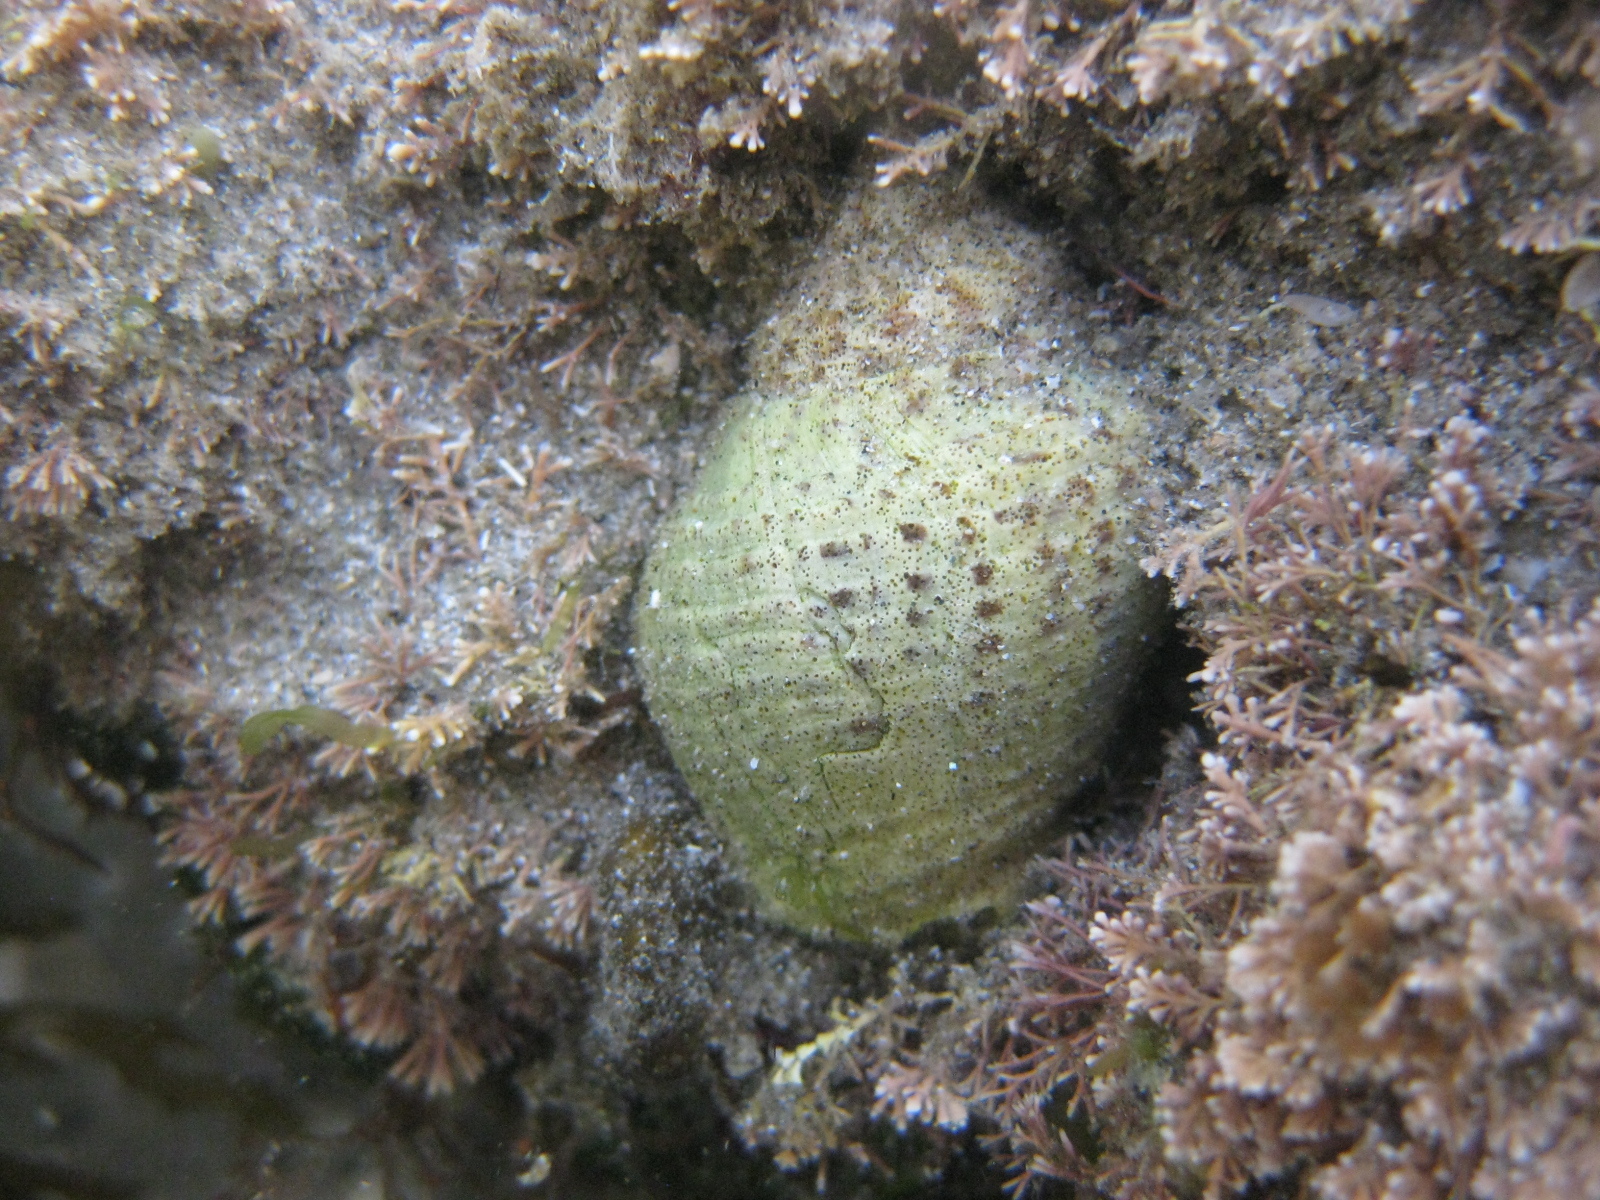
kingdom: Animalia
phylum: Mollusca
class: Gastropoda
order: Neogastropoda
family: Cominellidae
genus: Cominella
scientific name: Cominella adspersa
